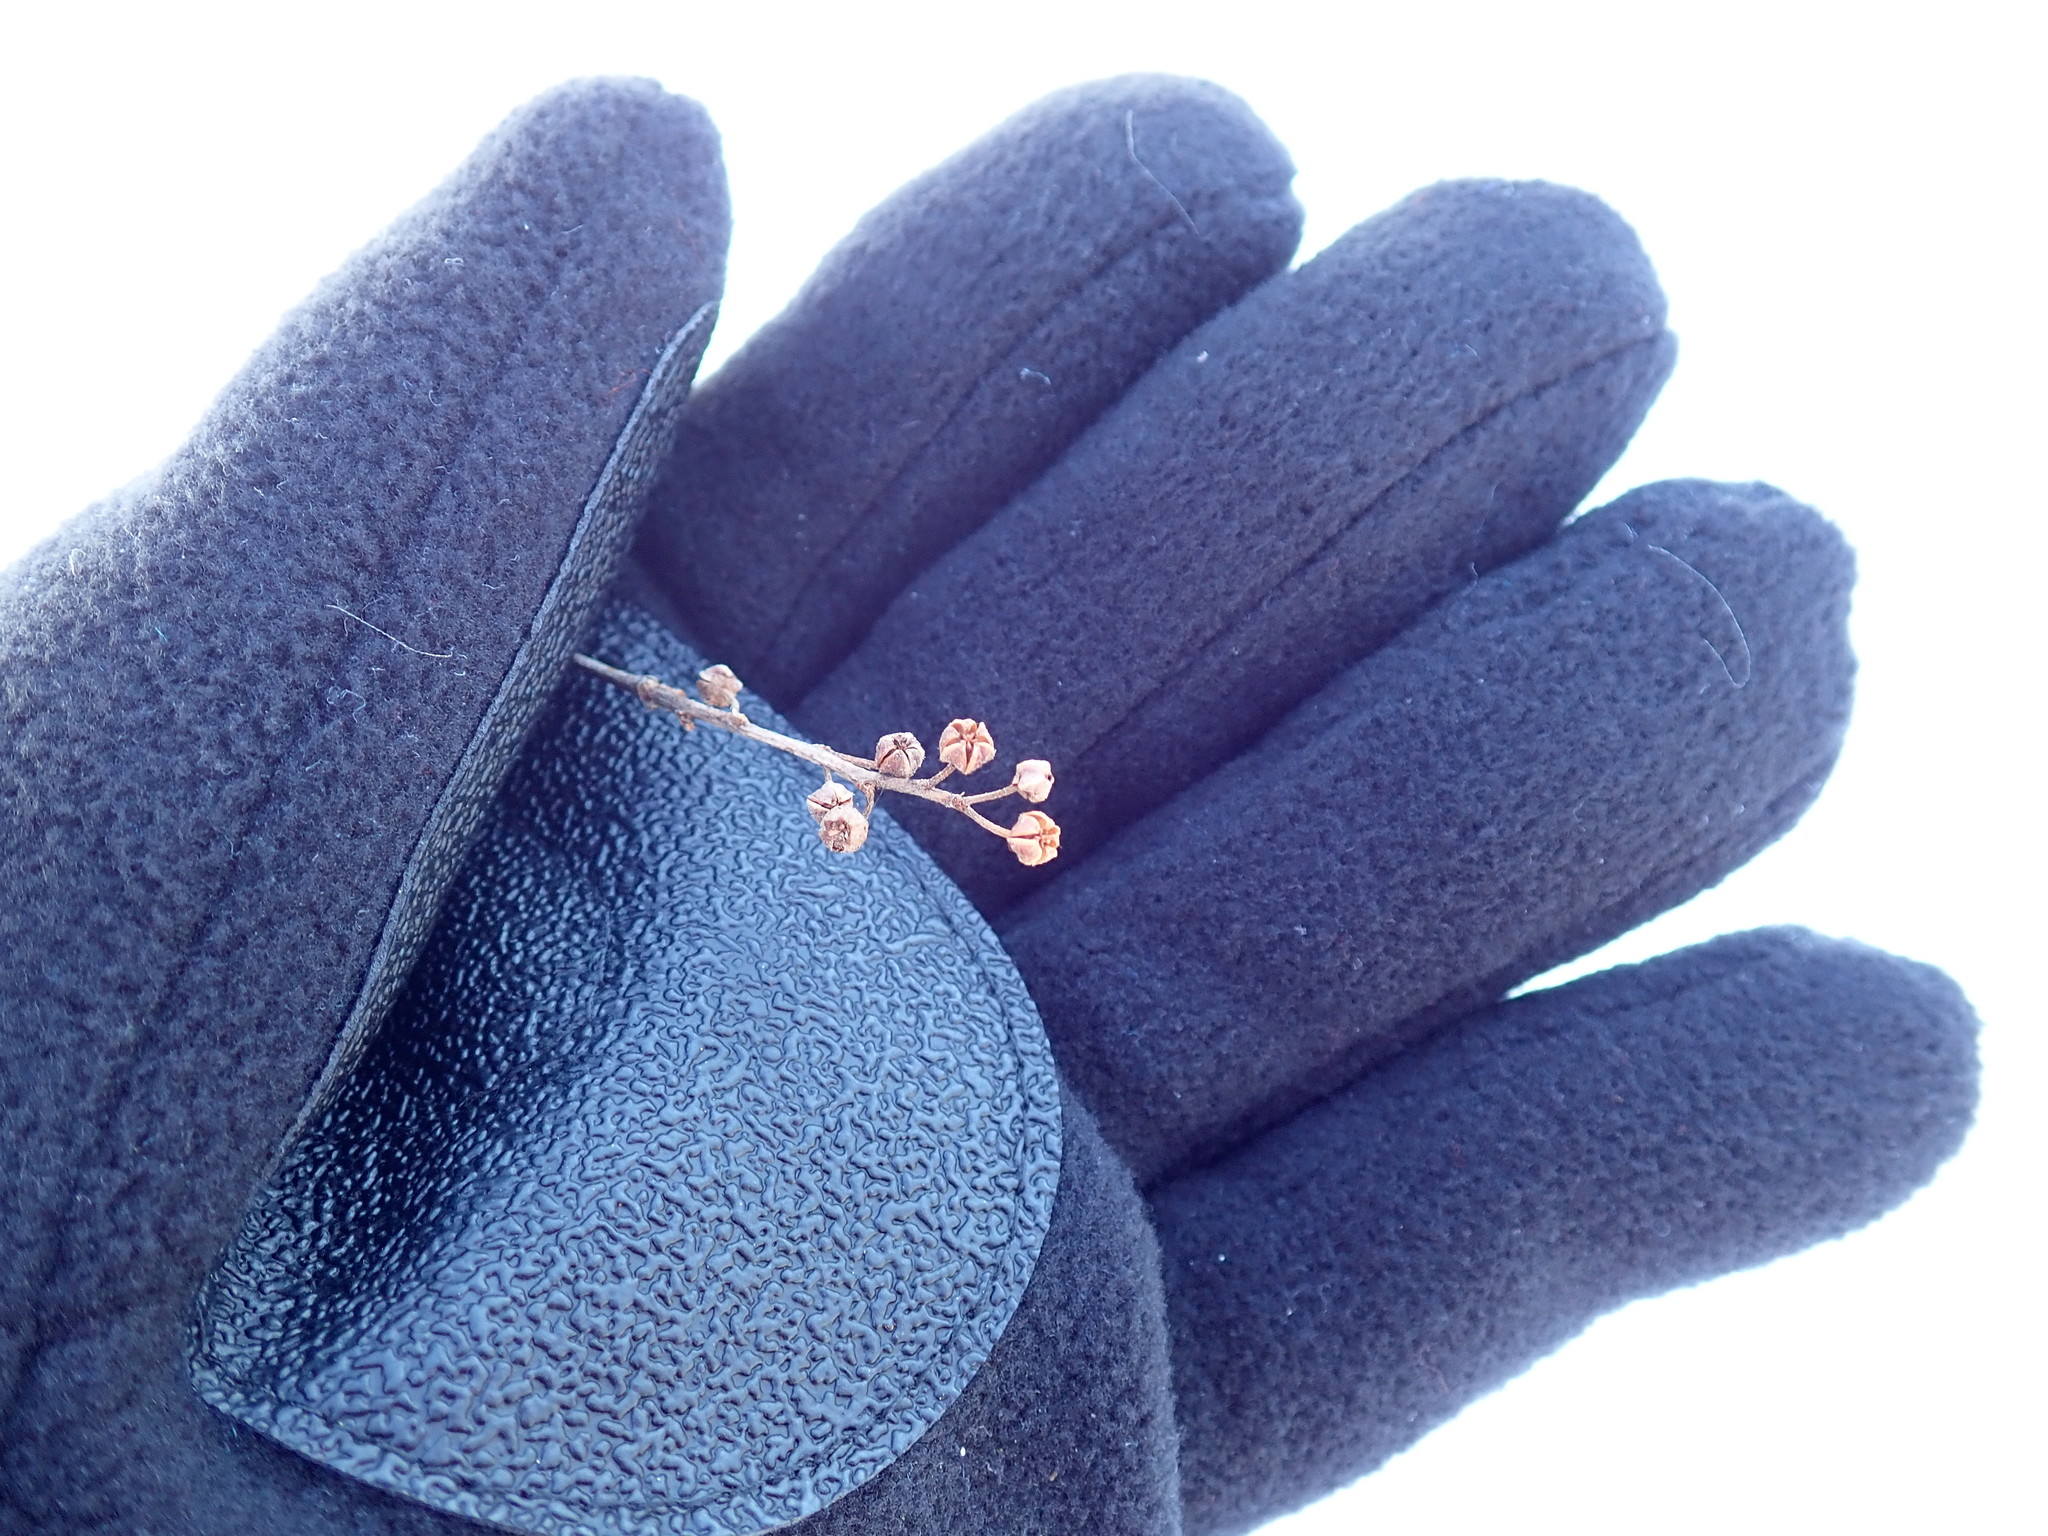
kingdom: Plantae
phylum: Tracheophyta
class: Magnoliopsida
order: Ericales
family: Ericaceae
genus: Lyonia
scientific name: Lyonia ligustrina
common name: Maleberry
